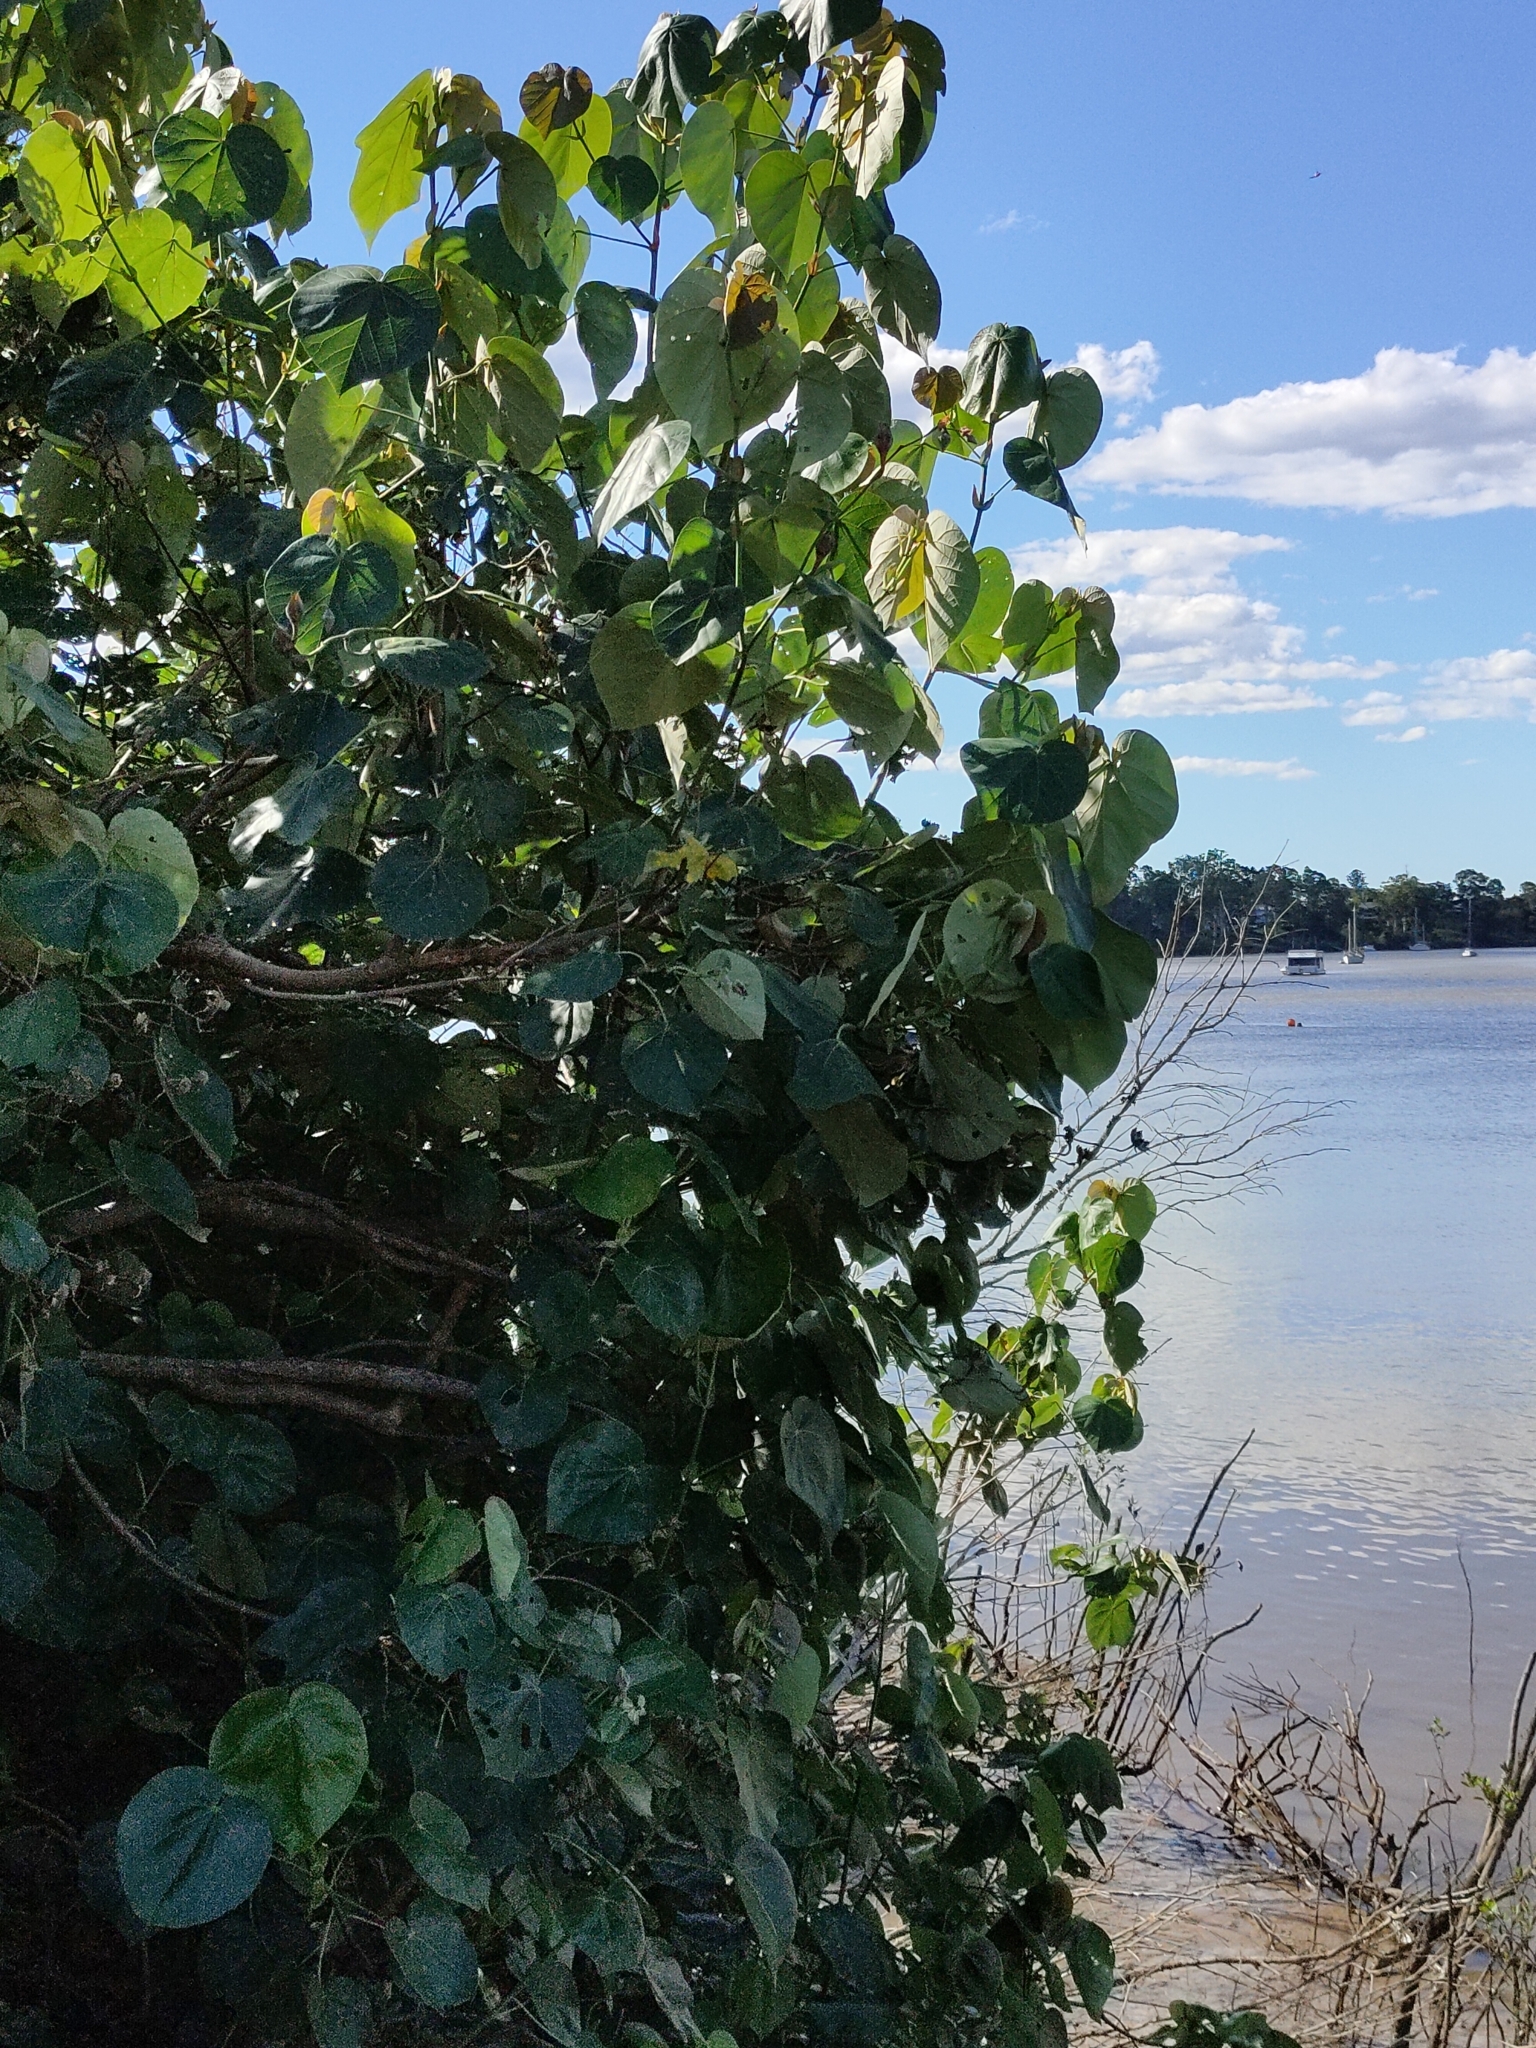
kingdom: Plantae
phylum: Tracheophyta
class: Magnoliopsida
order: Malvales
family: Malvaceae
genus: Talipariti
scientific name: Talipariti tiliaceum
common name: Sea hibiscus
